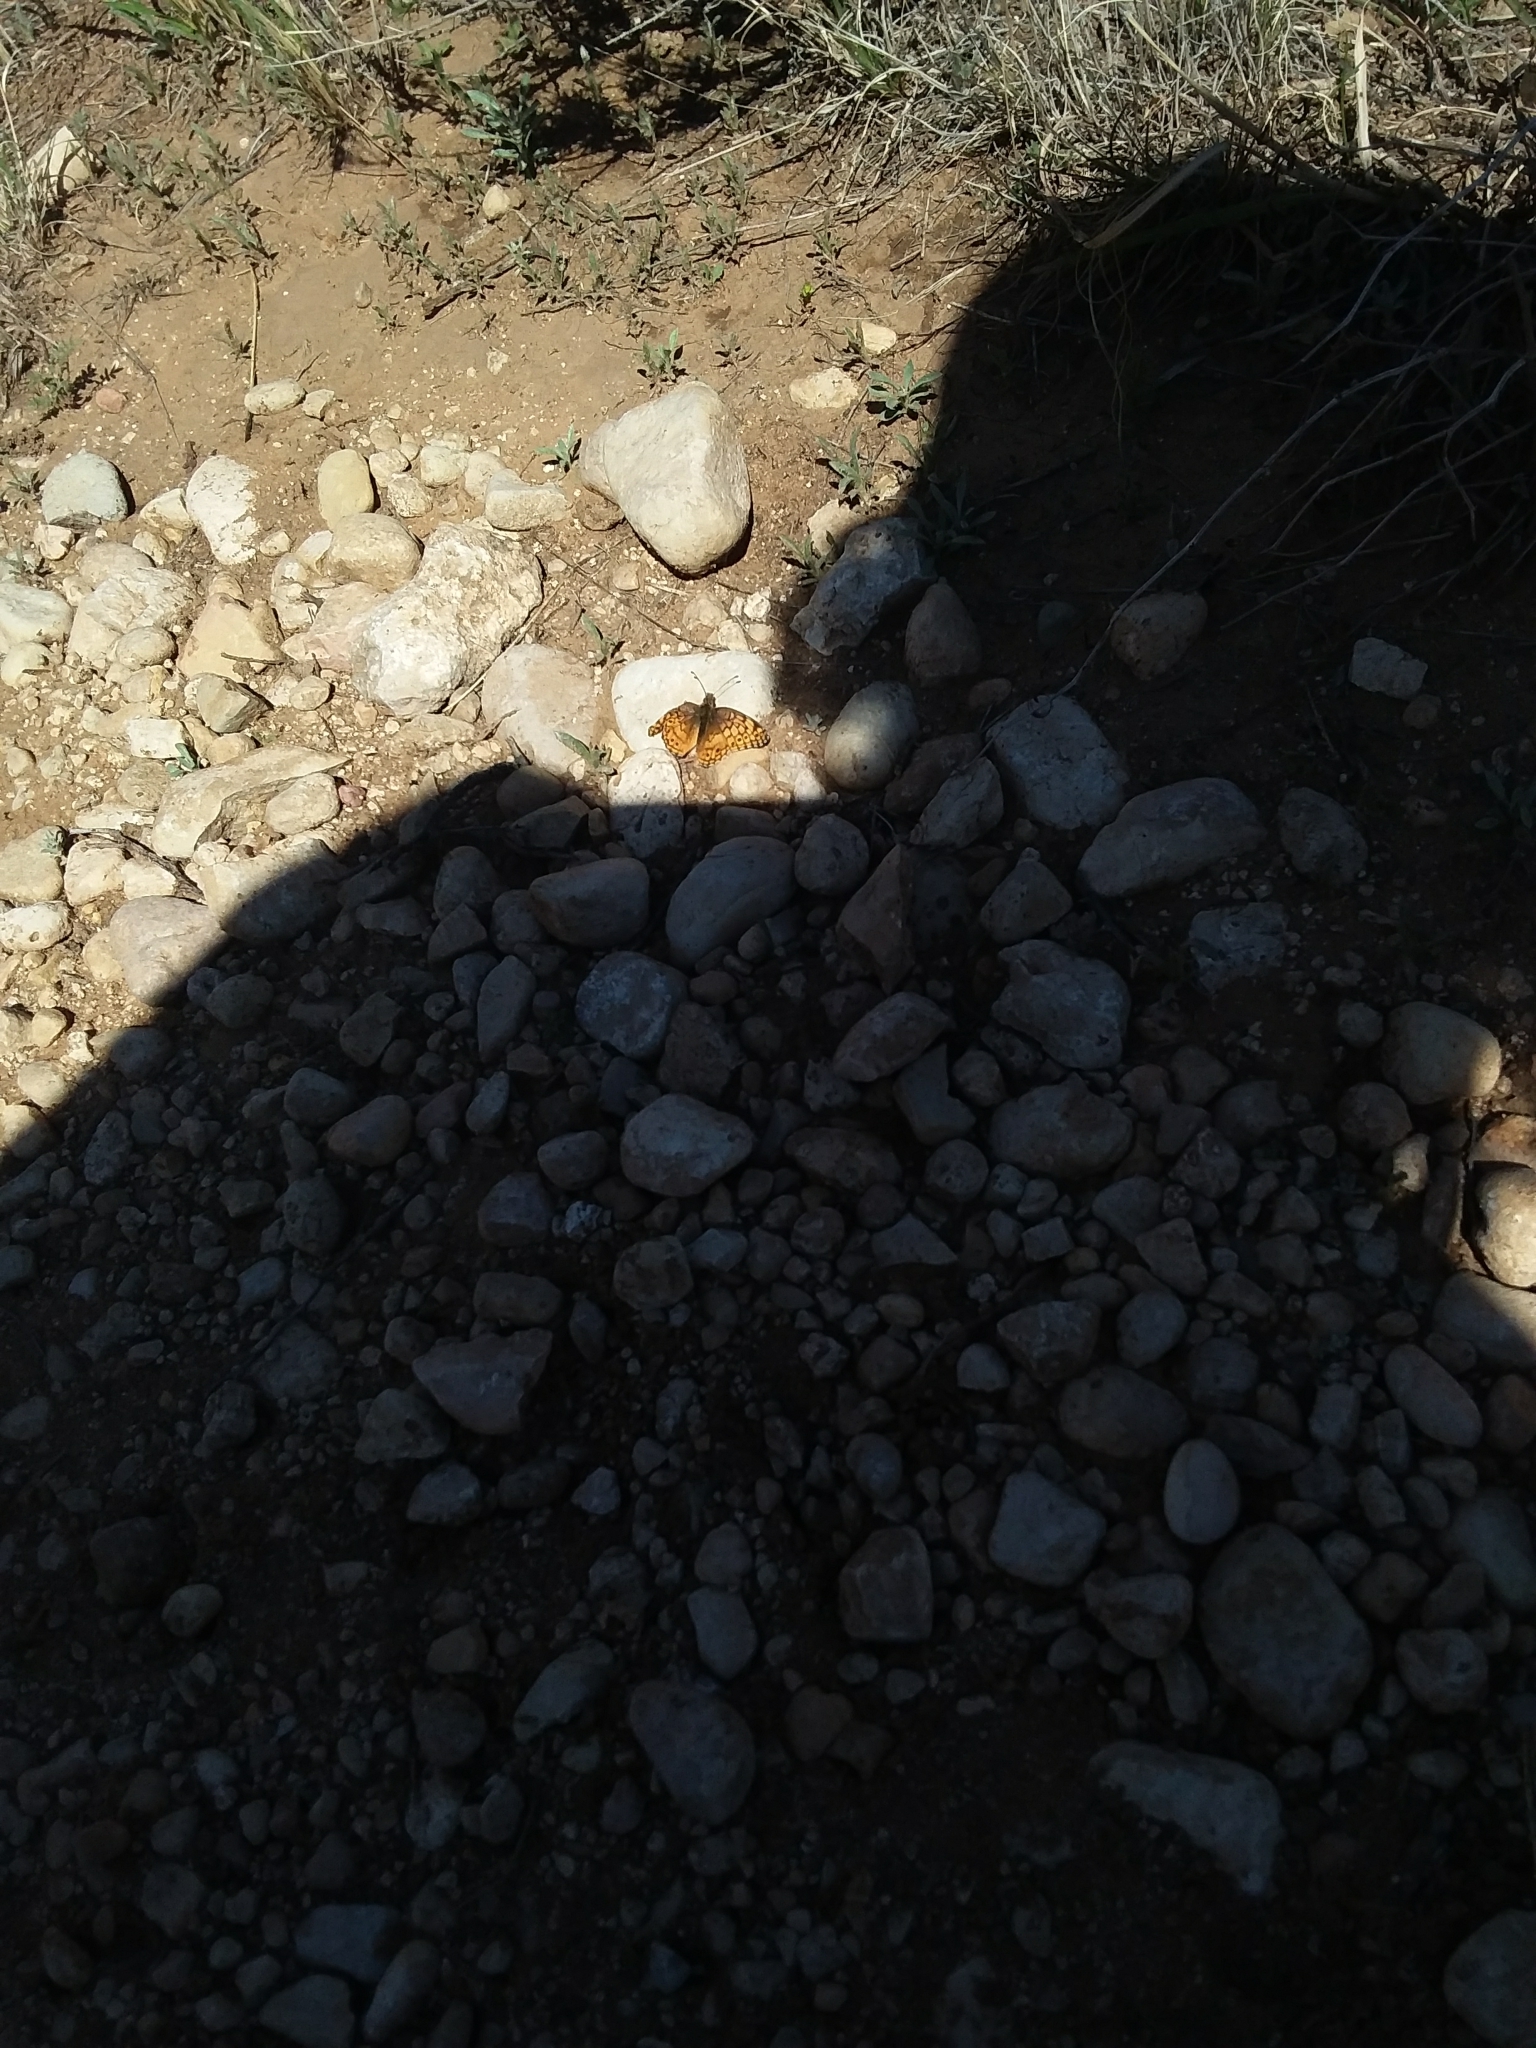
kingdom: Animalia
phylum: Arthropoda
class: Insecta
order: Lepidoptera
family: Nymphalidae
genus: Euptoieta
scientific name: Euptoieta claudia
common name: Variegated fritillary
